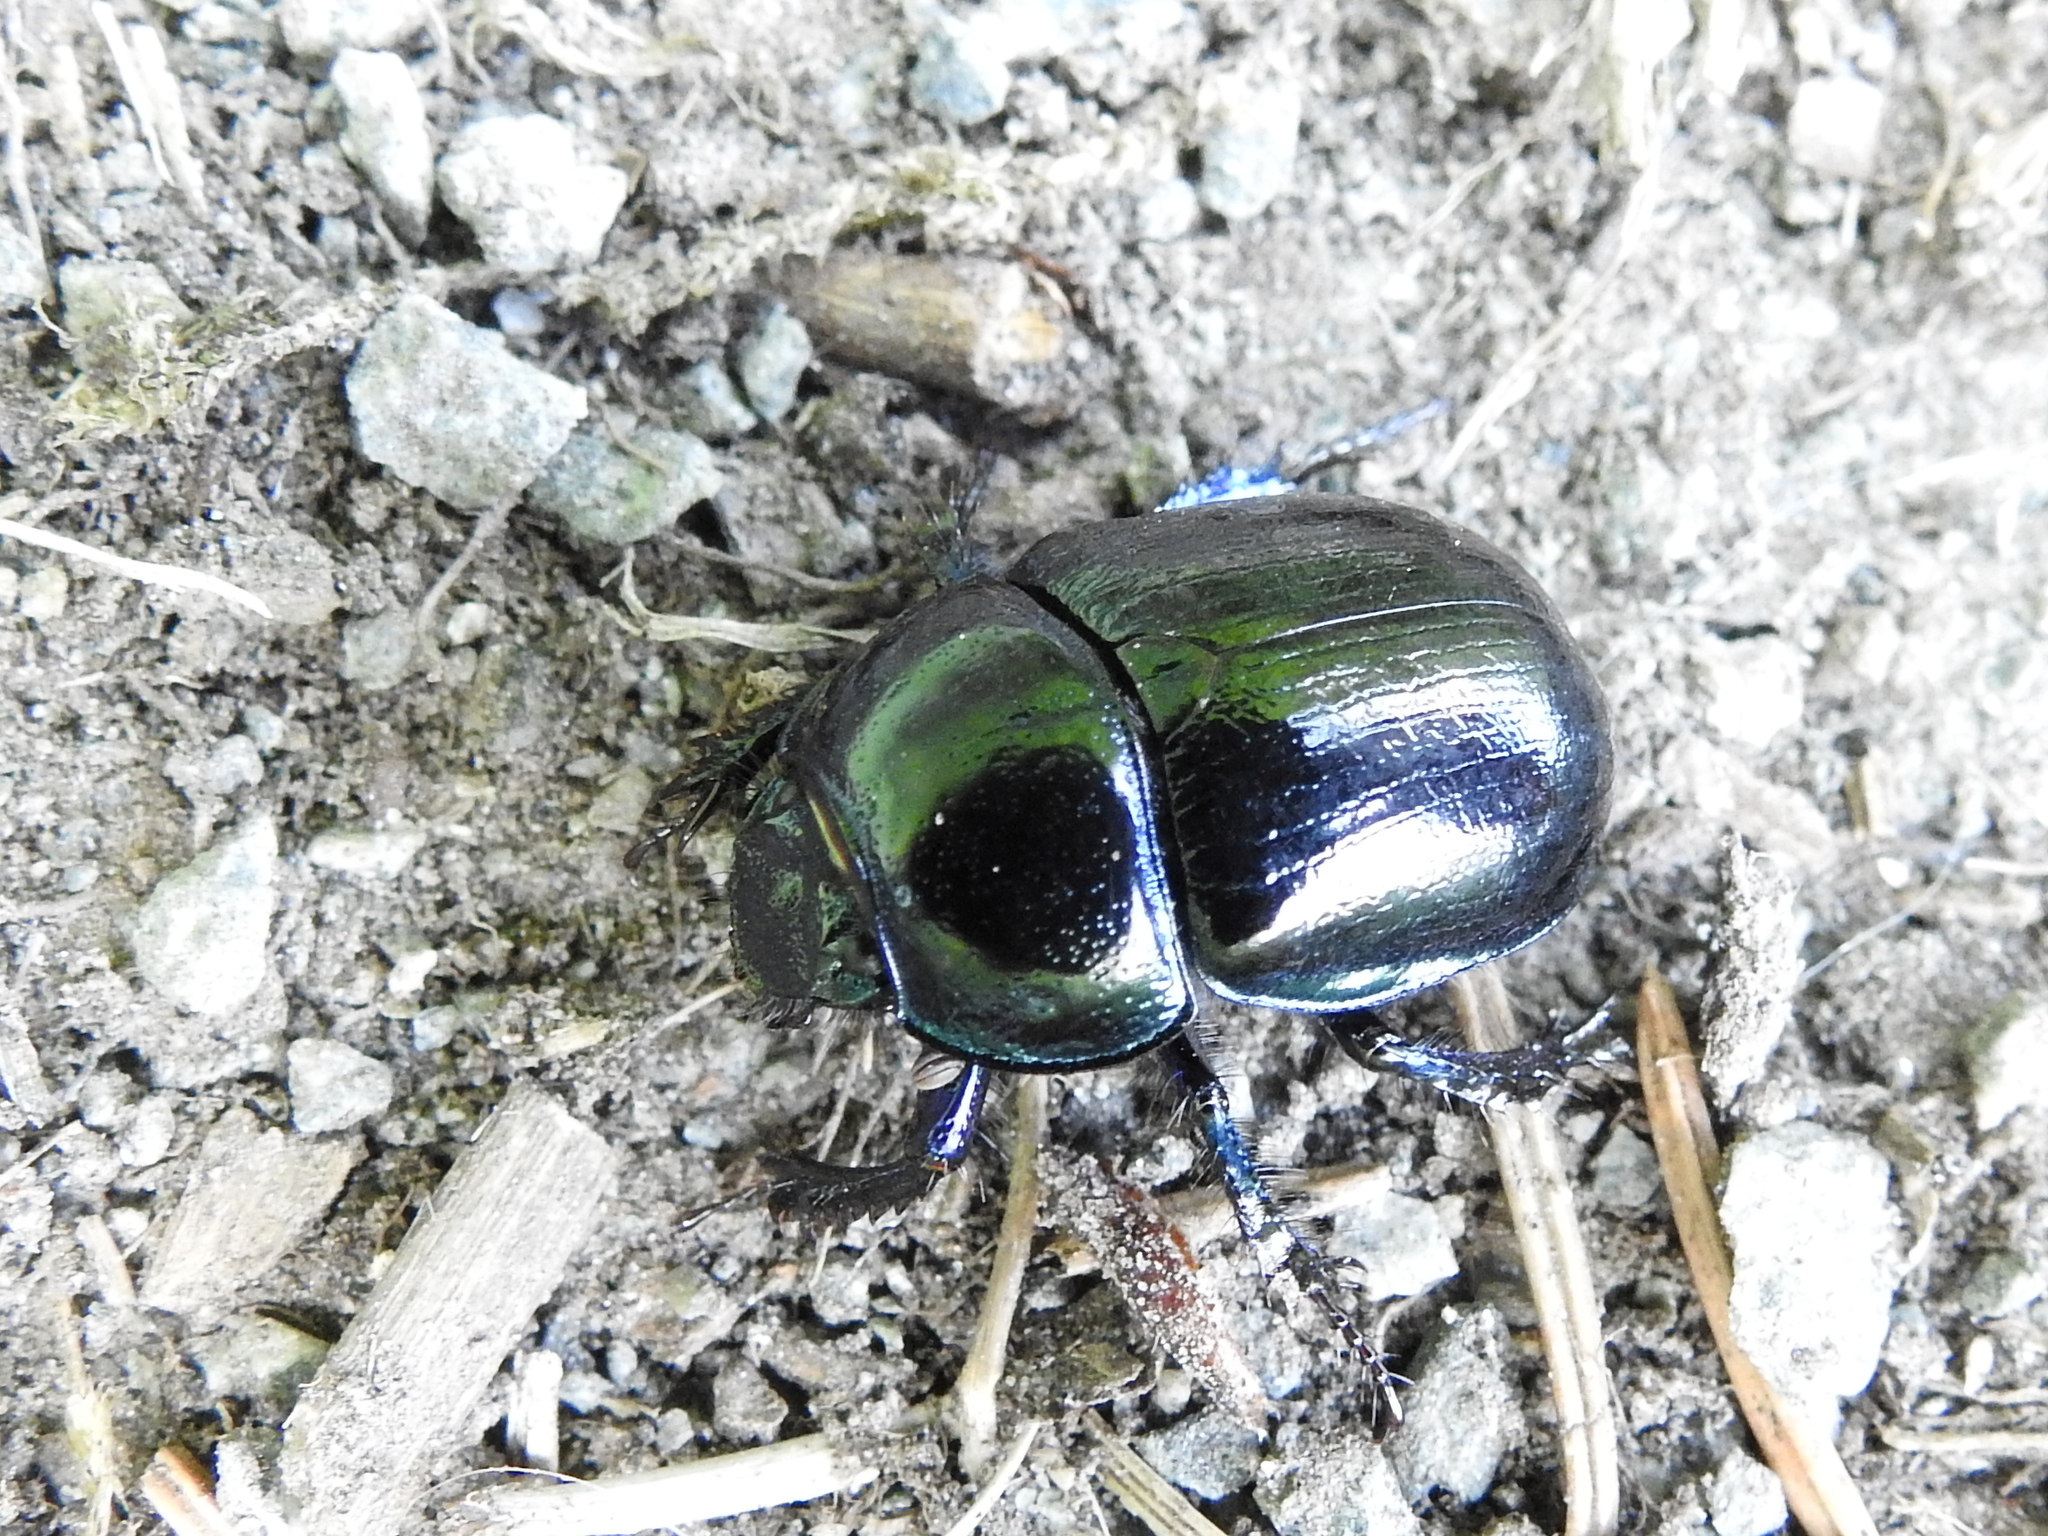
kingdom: Animalia
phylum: Arthropoda
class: Insecta
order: Coleoptera
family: Geotrupidae
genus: Anoplotrupes
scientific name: Anoplotrupes stercorosus
